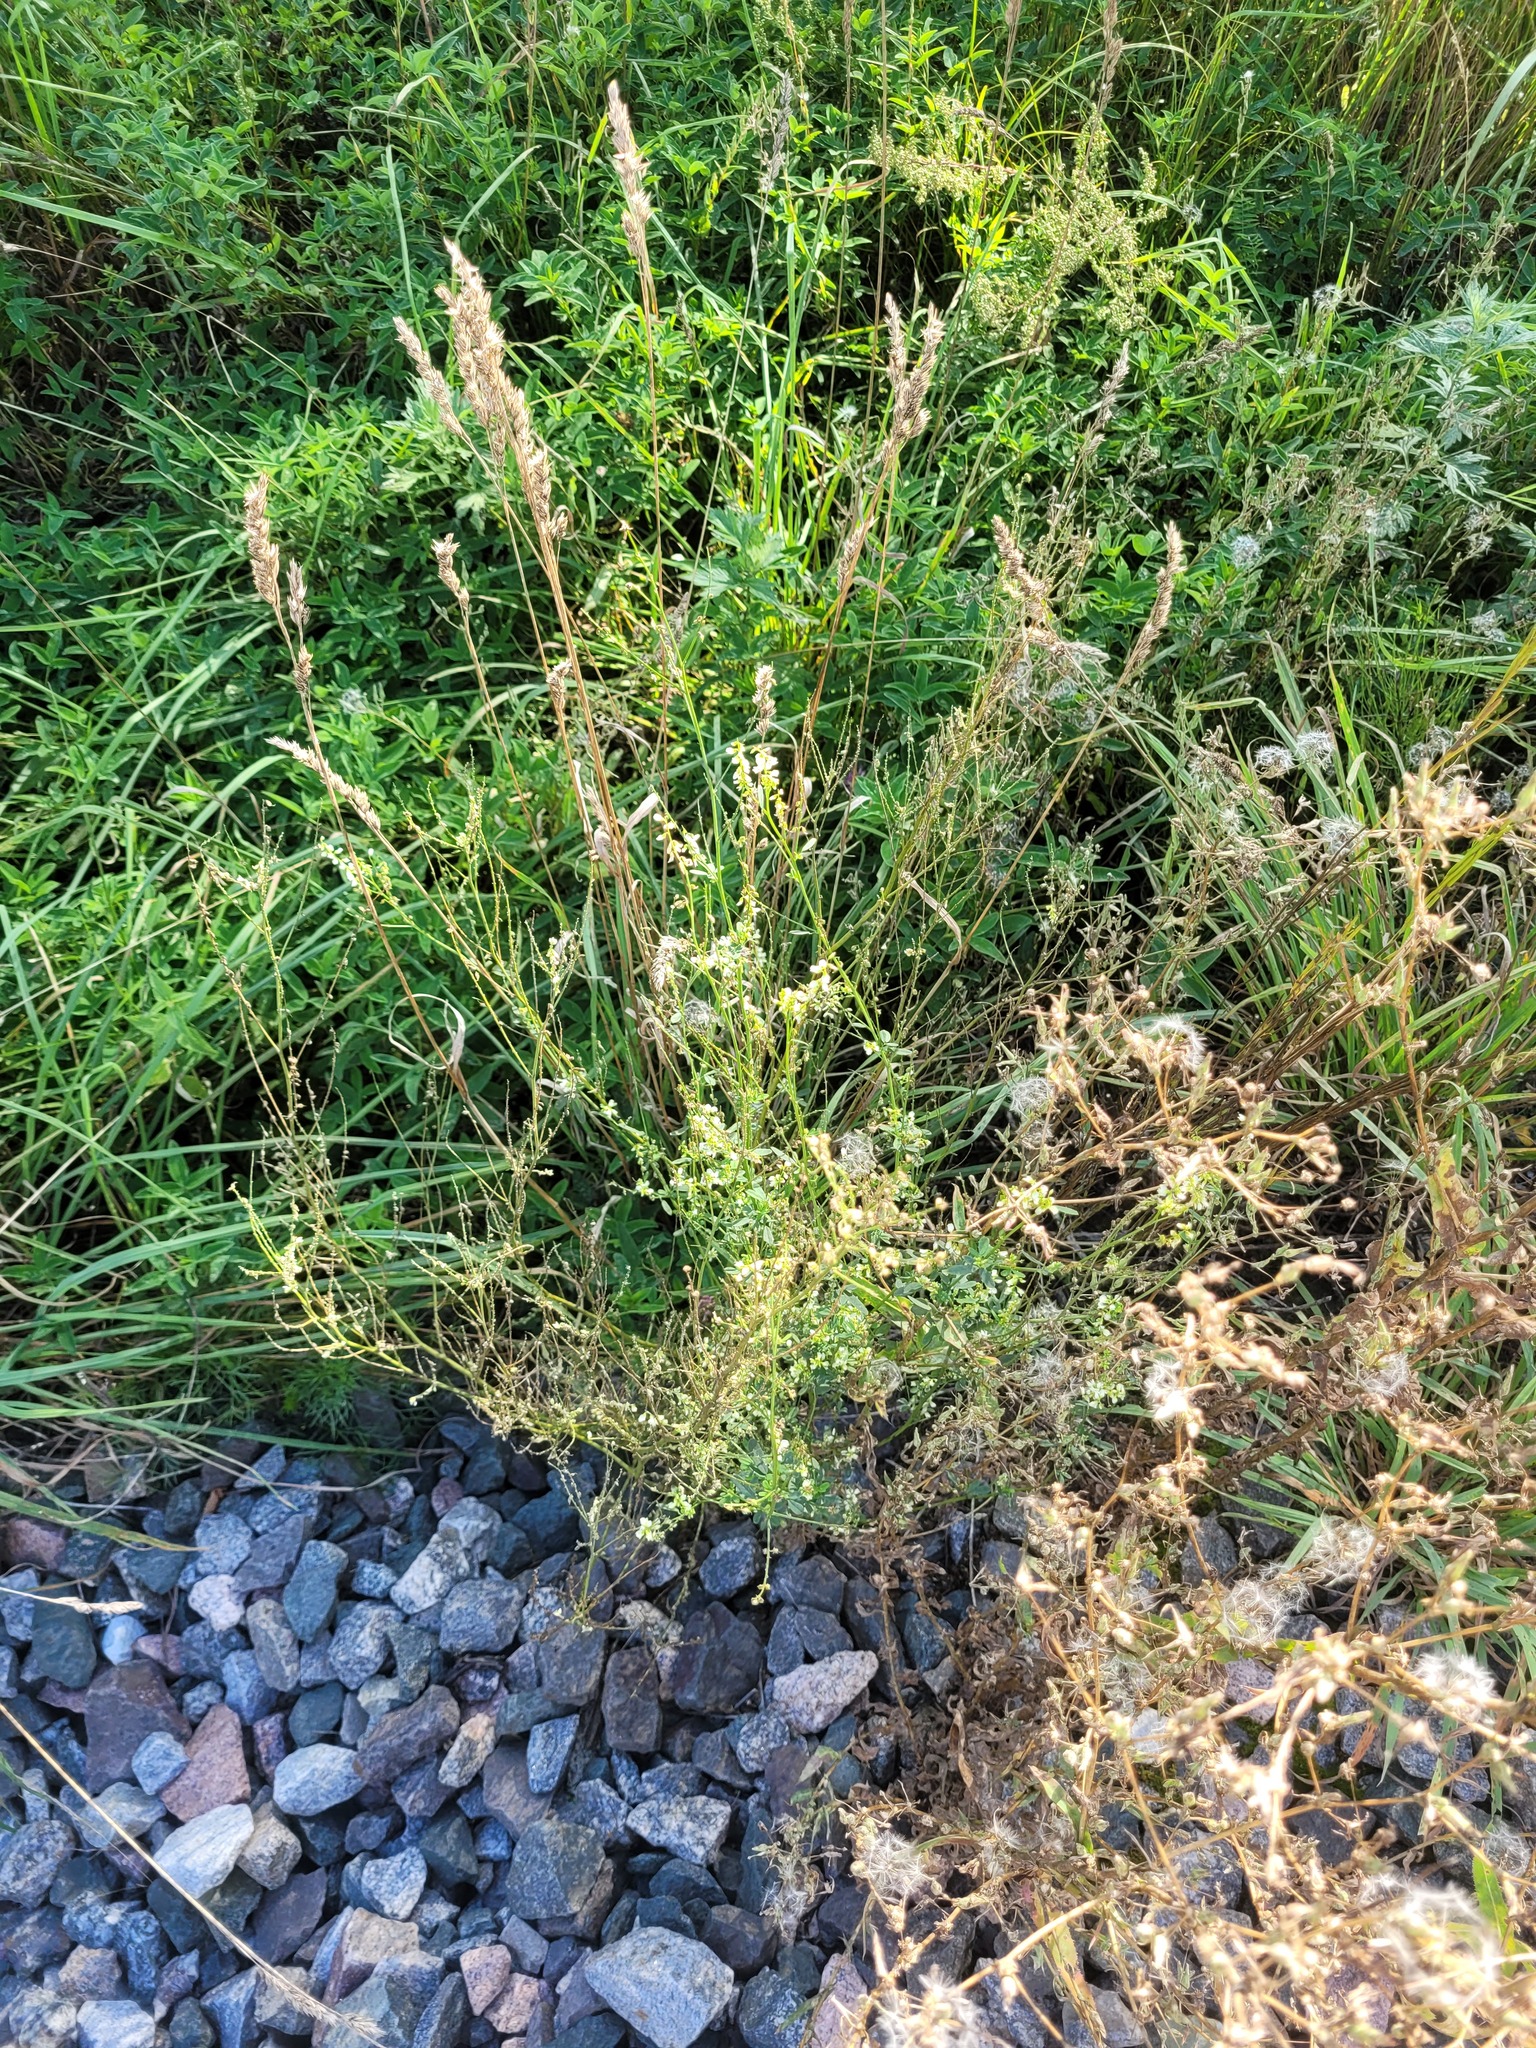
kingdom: Plantae
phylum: Tracheophyta
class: Magnoliopsida
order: Fabales
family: Fabaceae
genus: Melilotus
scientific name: Melilotus albus
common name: White melilot
